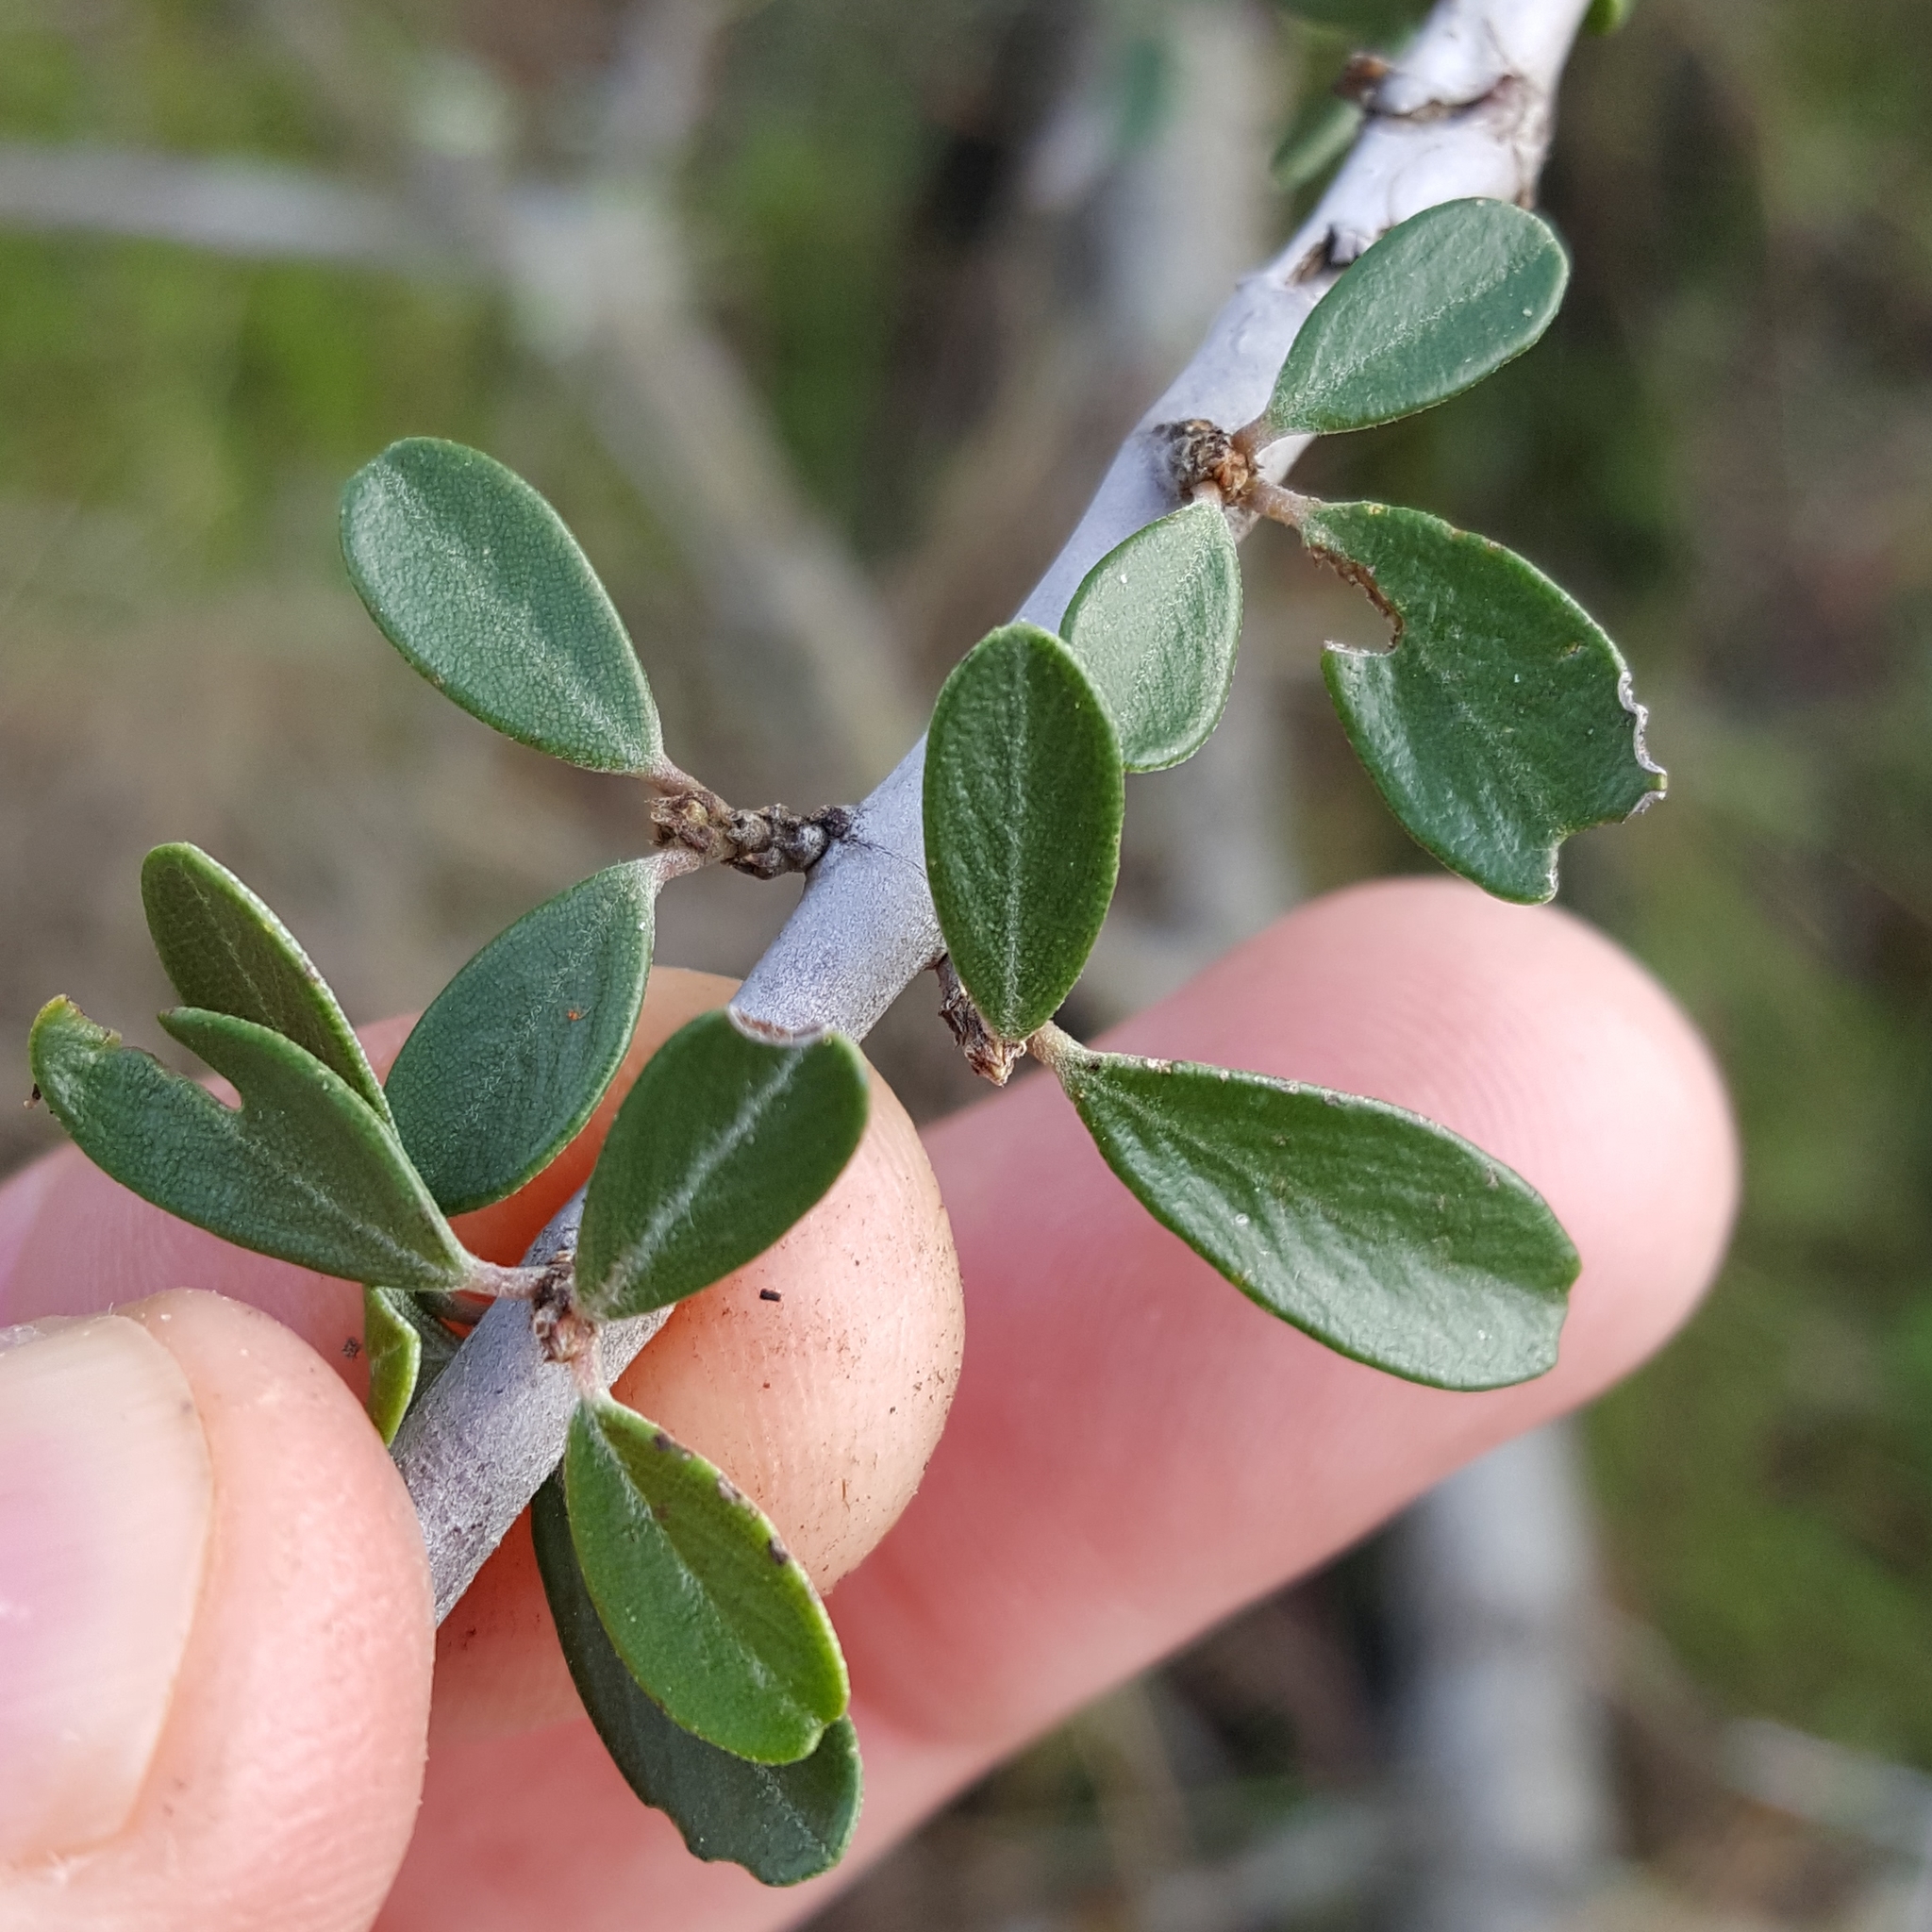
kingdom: Plantae
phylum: Tracheophyta
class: Magnoliopsida
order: Rosales
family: Rhamnaceae
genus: Ceanothus
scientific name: Ceanothus cuneatus
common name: Cuneate ceanothus
